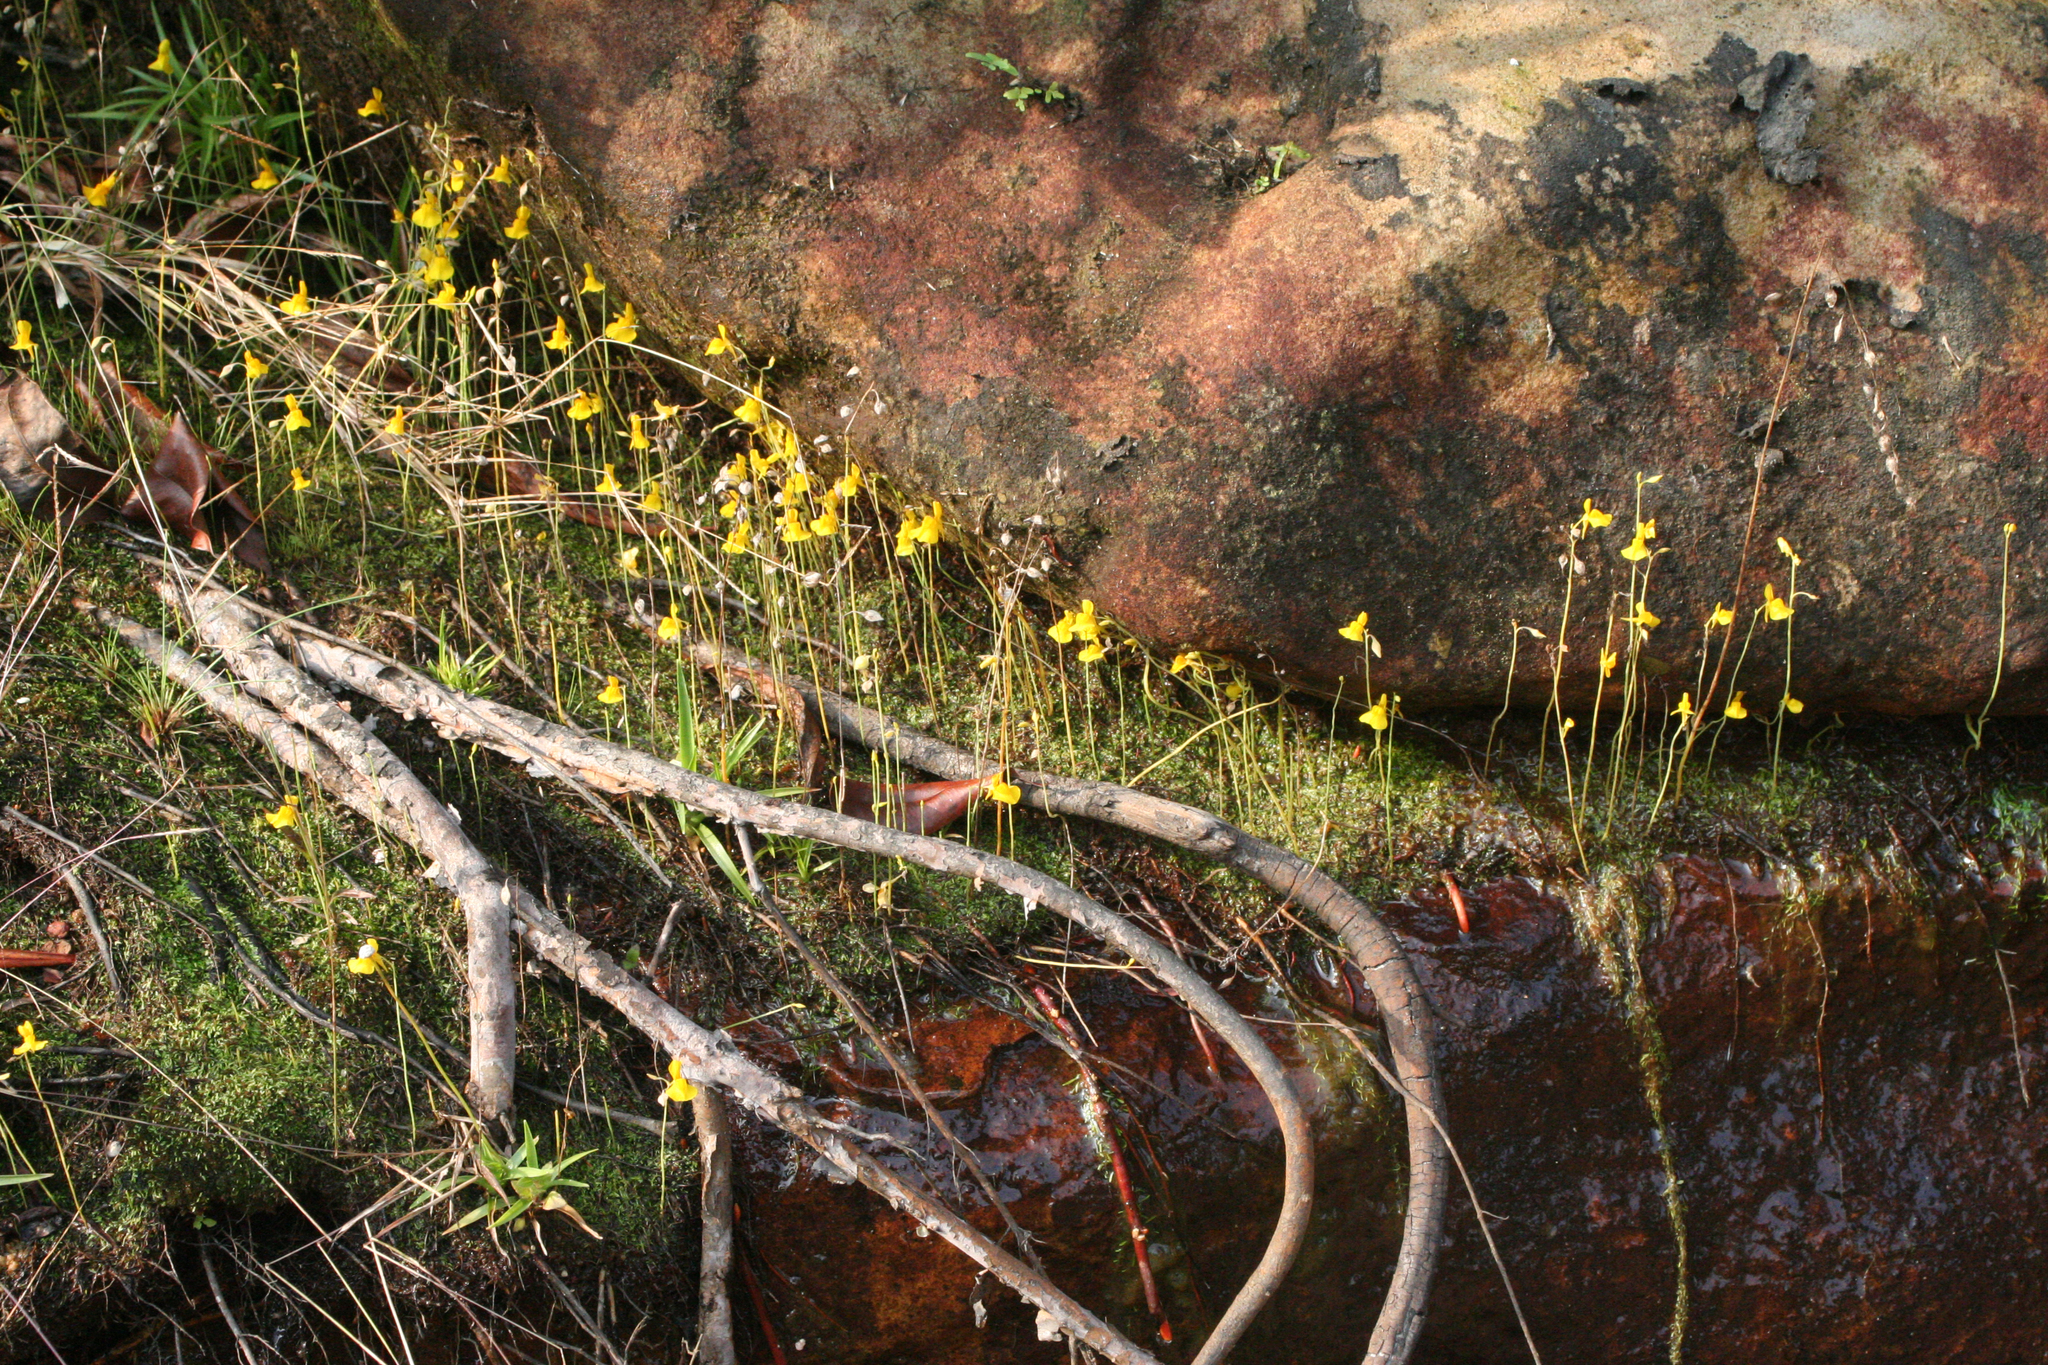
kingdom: Plantae
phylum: Tracheophyta
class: Magnoliopsida
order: Lamiales
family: Lentibulariaceae
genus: Utricularia
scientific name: Utricularia odorata
